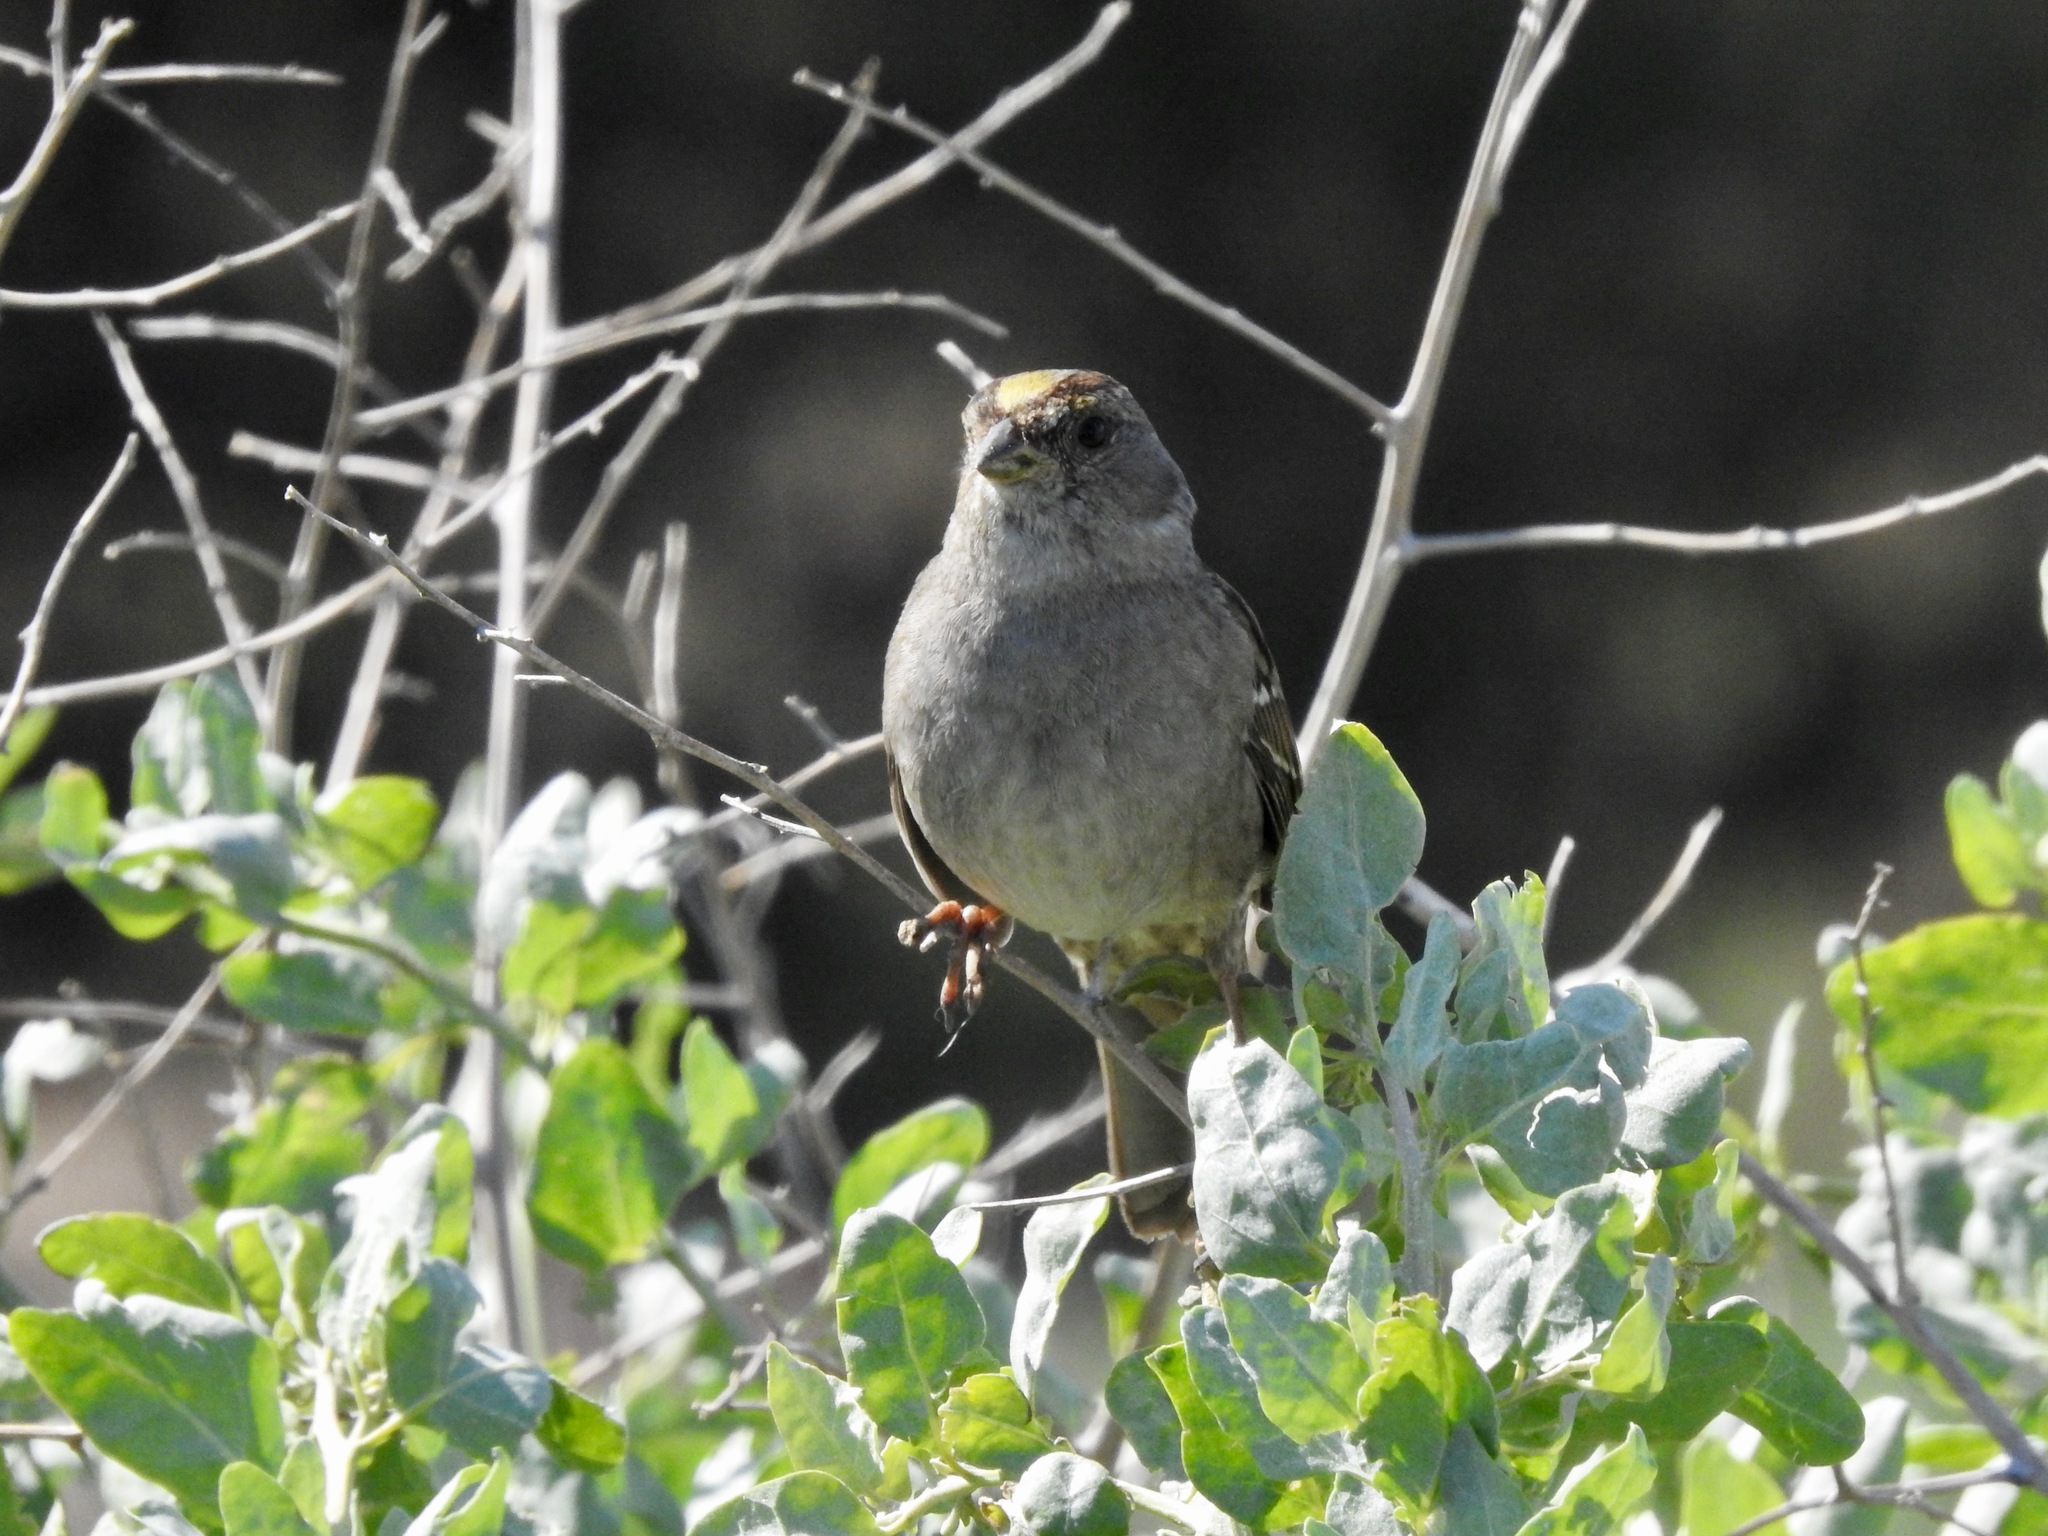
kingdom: Animalia
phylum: Chordata
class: Aves
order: Passeriformes
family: Passerellidae
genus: Zonotrichia
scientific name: Zonotrichia atricapilla
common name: Golden-crowned sparrow
